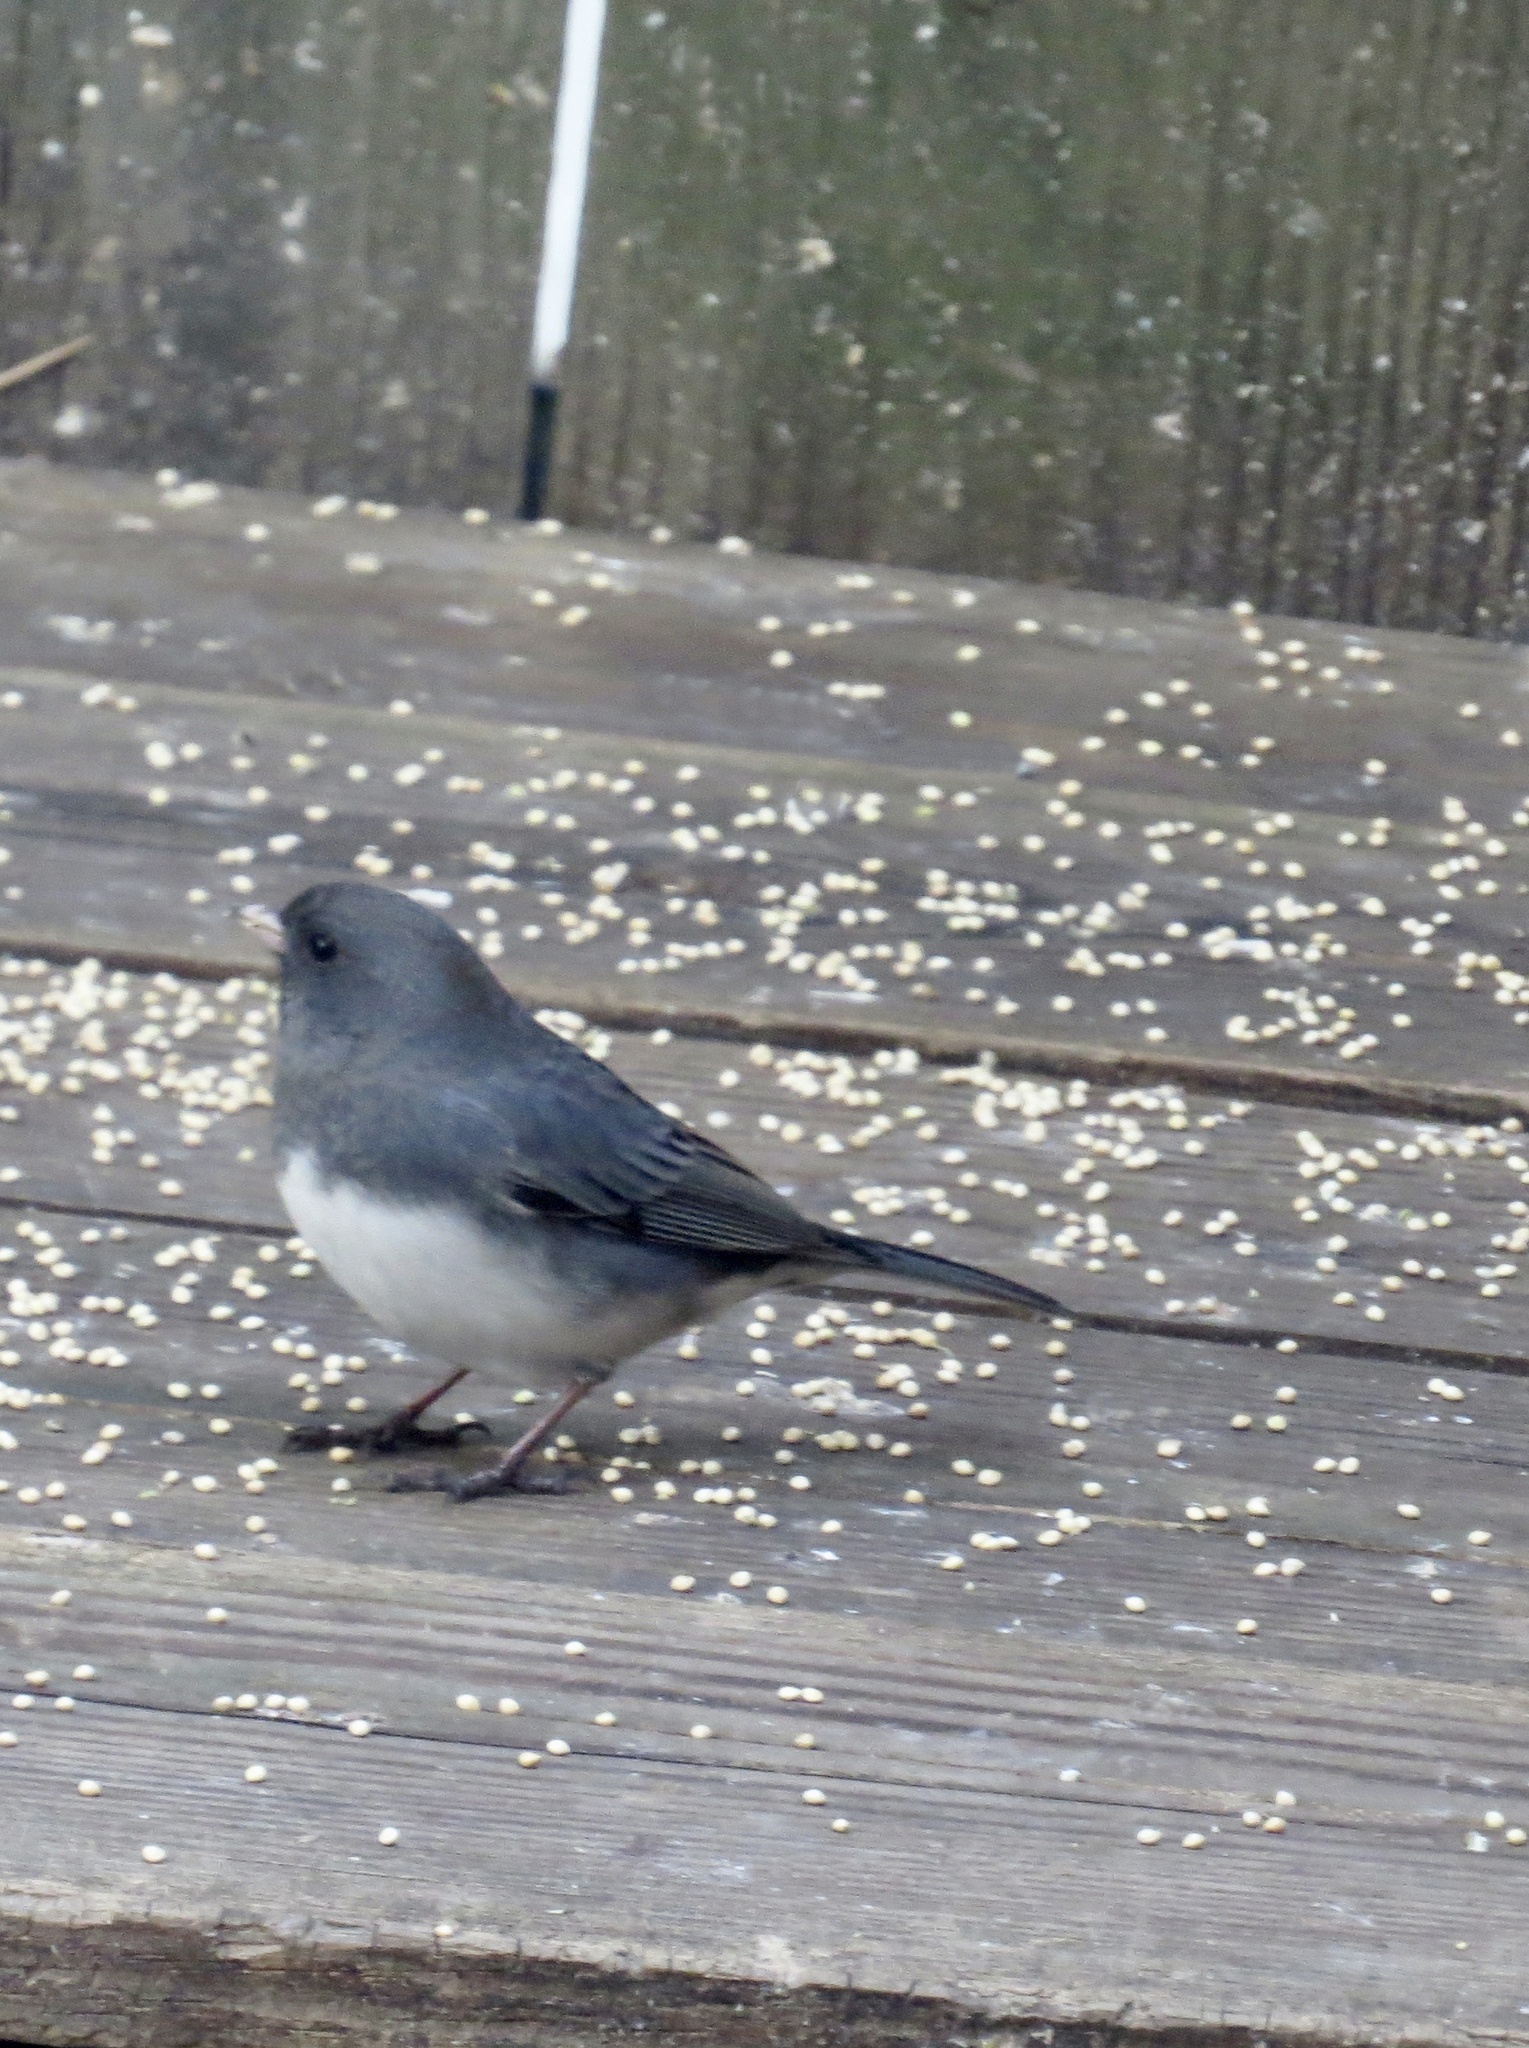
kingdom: Animalia
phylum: Chordata
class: Aves
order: Passeriformes
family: Passerellidae
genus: Junco
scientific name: Junco hyemalis
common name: Dark-eyed junco
